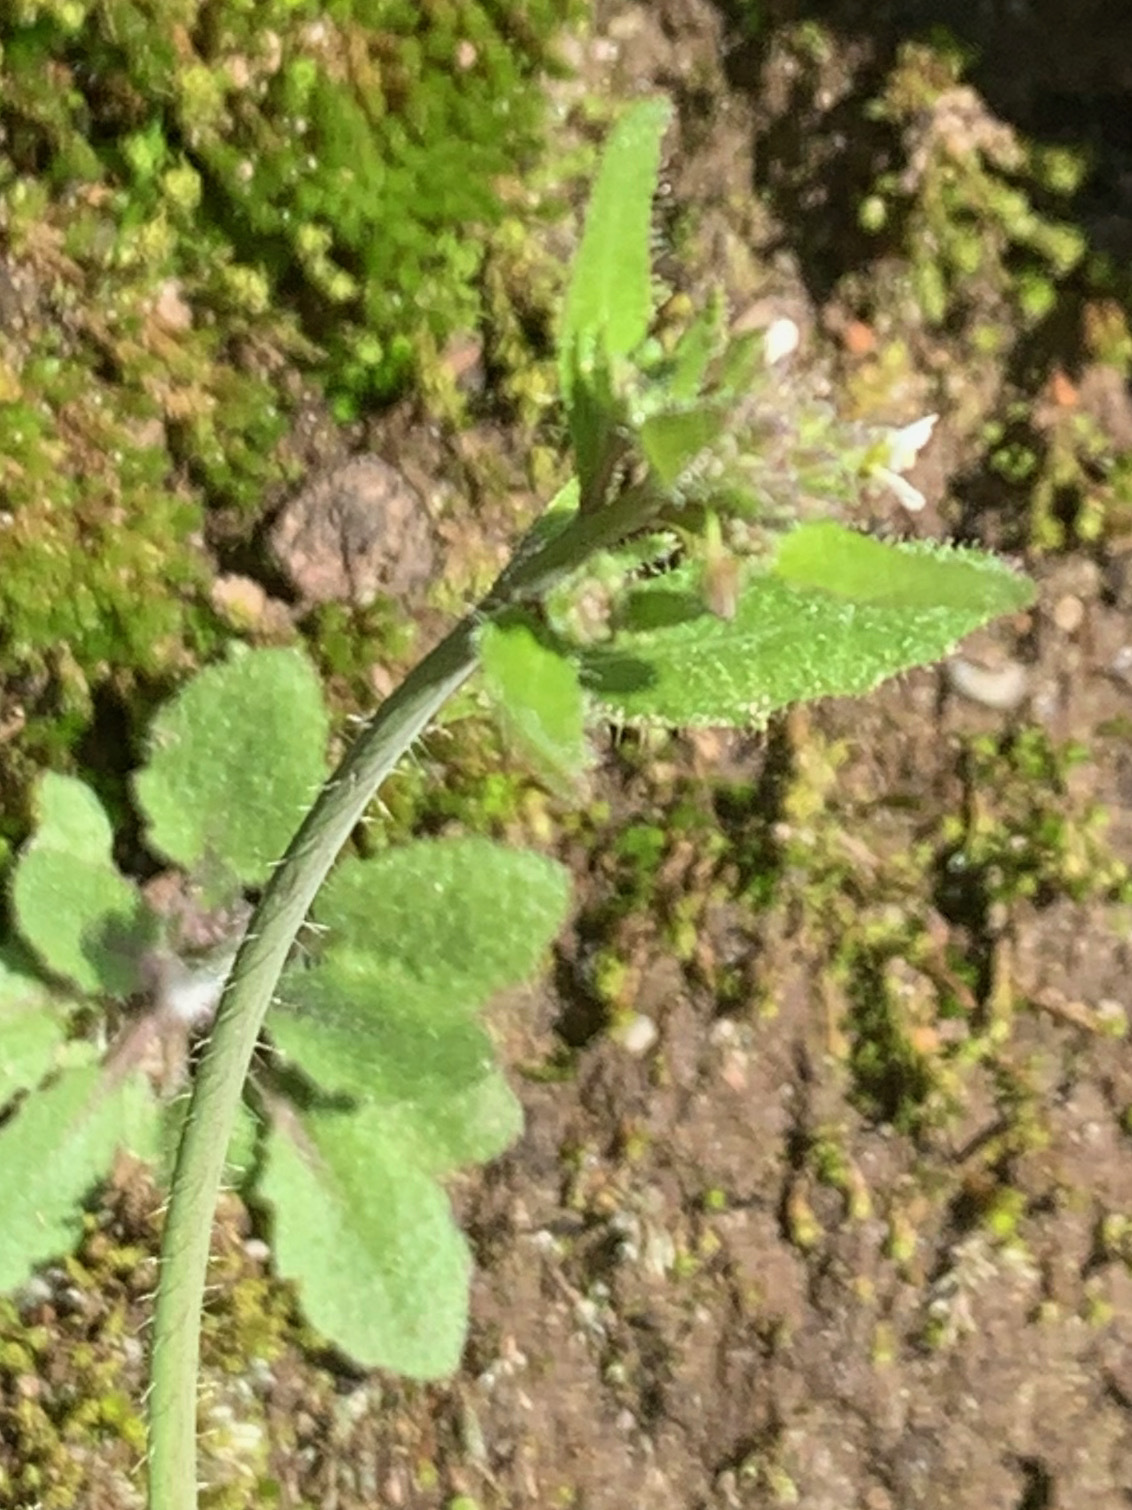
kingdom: Plantae
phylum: Tracheophyta
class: Magnoliopsida
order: Brassicales
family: Brassicaceae
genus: Arabidopsis
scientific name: Arabidopsis thaliana
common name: Thale cress
